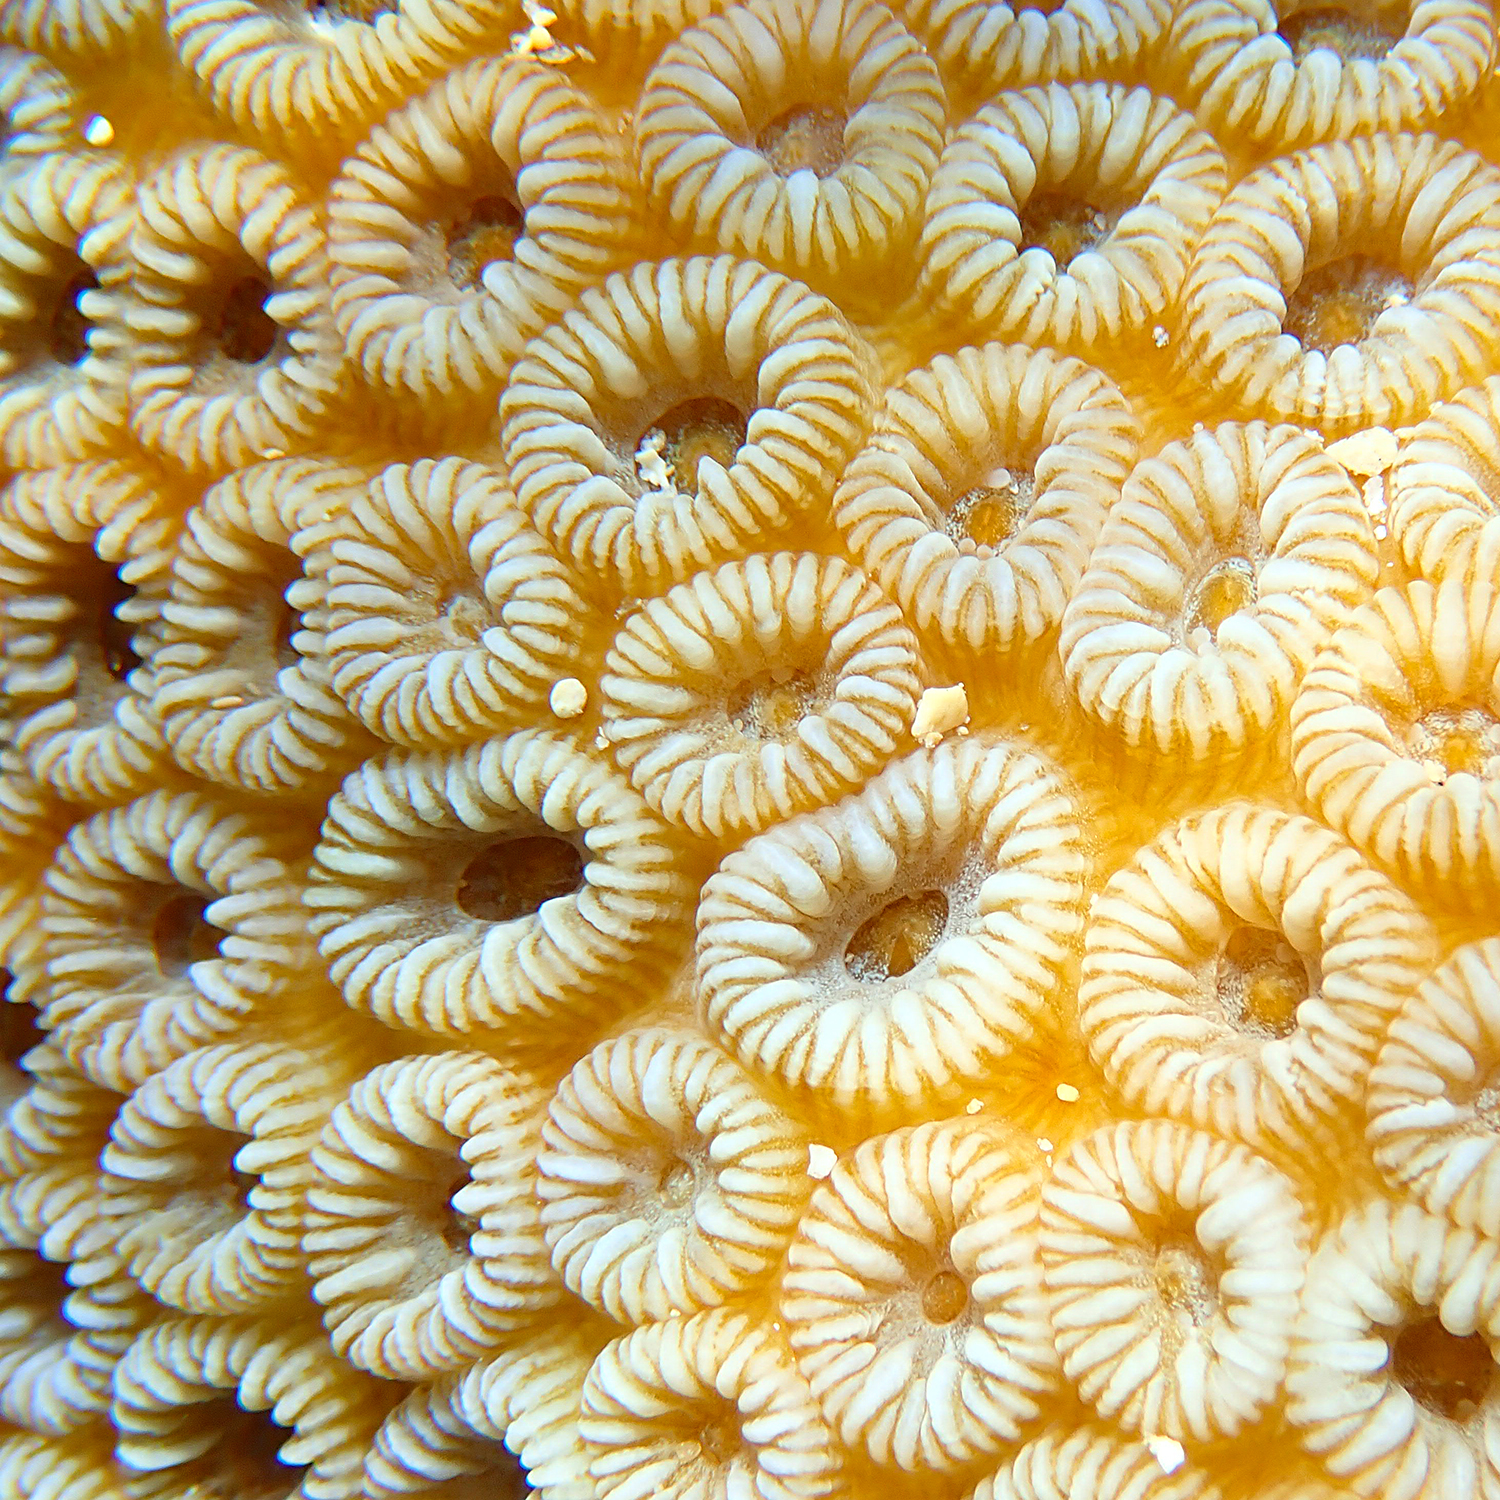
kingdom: Animalia
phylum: Cnidaria
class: Anthozoa
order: Scleractinia
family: Merulinidae
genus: Astrea
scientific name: Astrea curta
